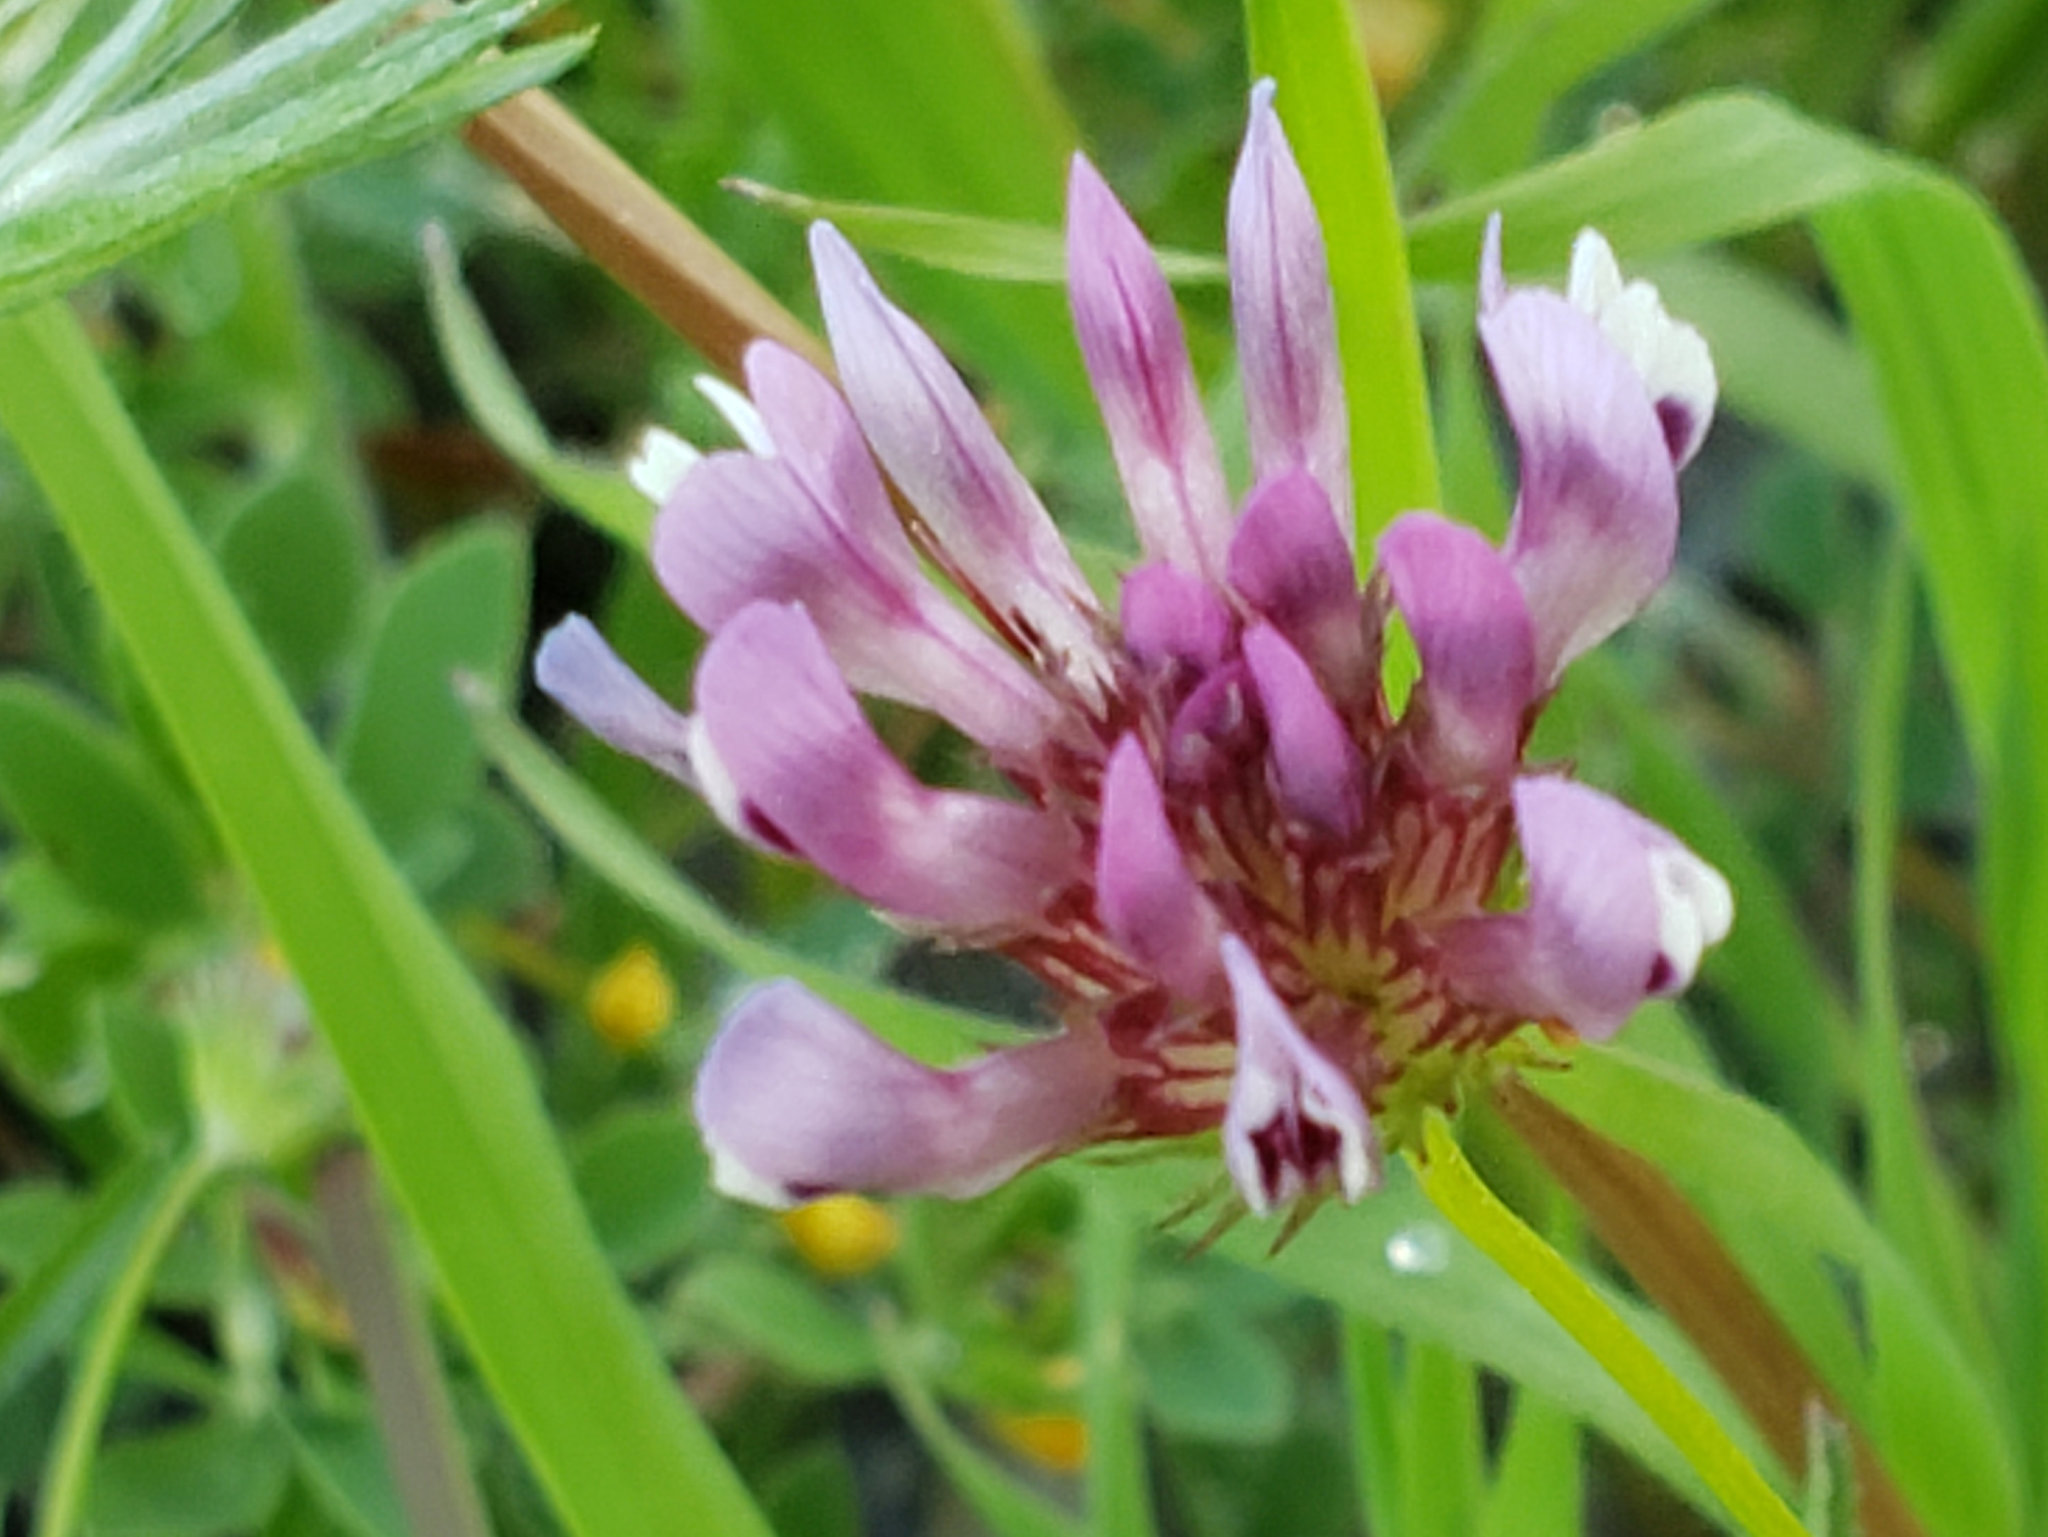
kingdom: Plantae
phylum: Tracheophyta
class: Magnoliopsida
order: Fabales
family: Fabaceae
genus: Trifolium
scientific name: Trifolium willdenovii
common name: Tomcat clover
